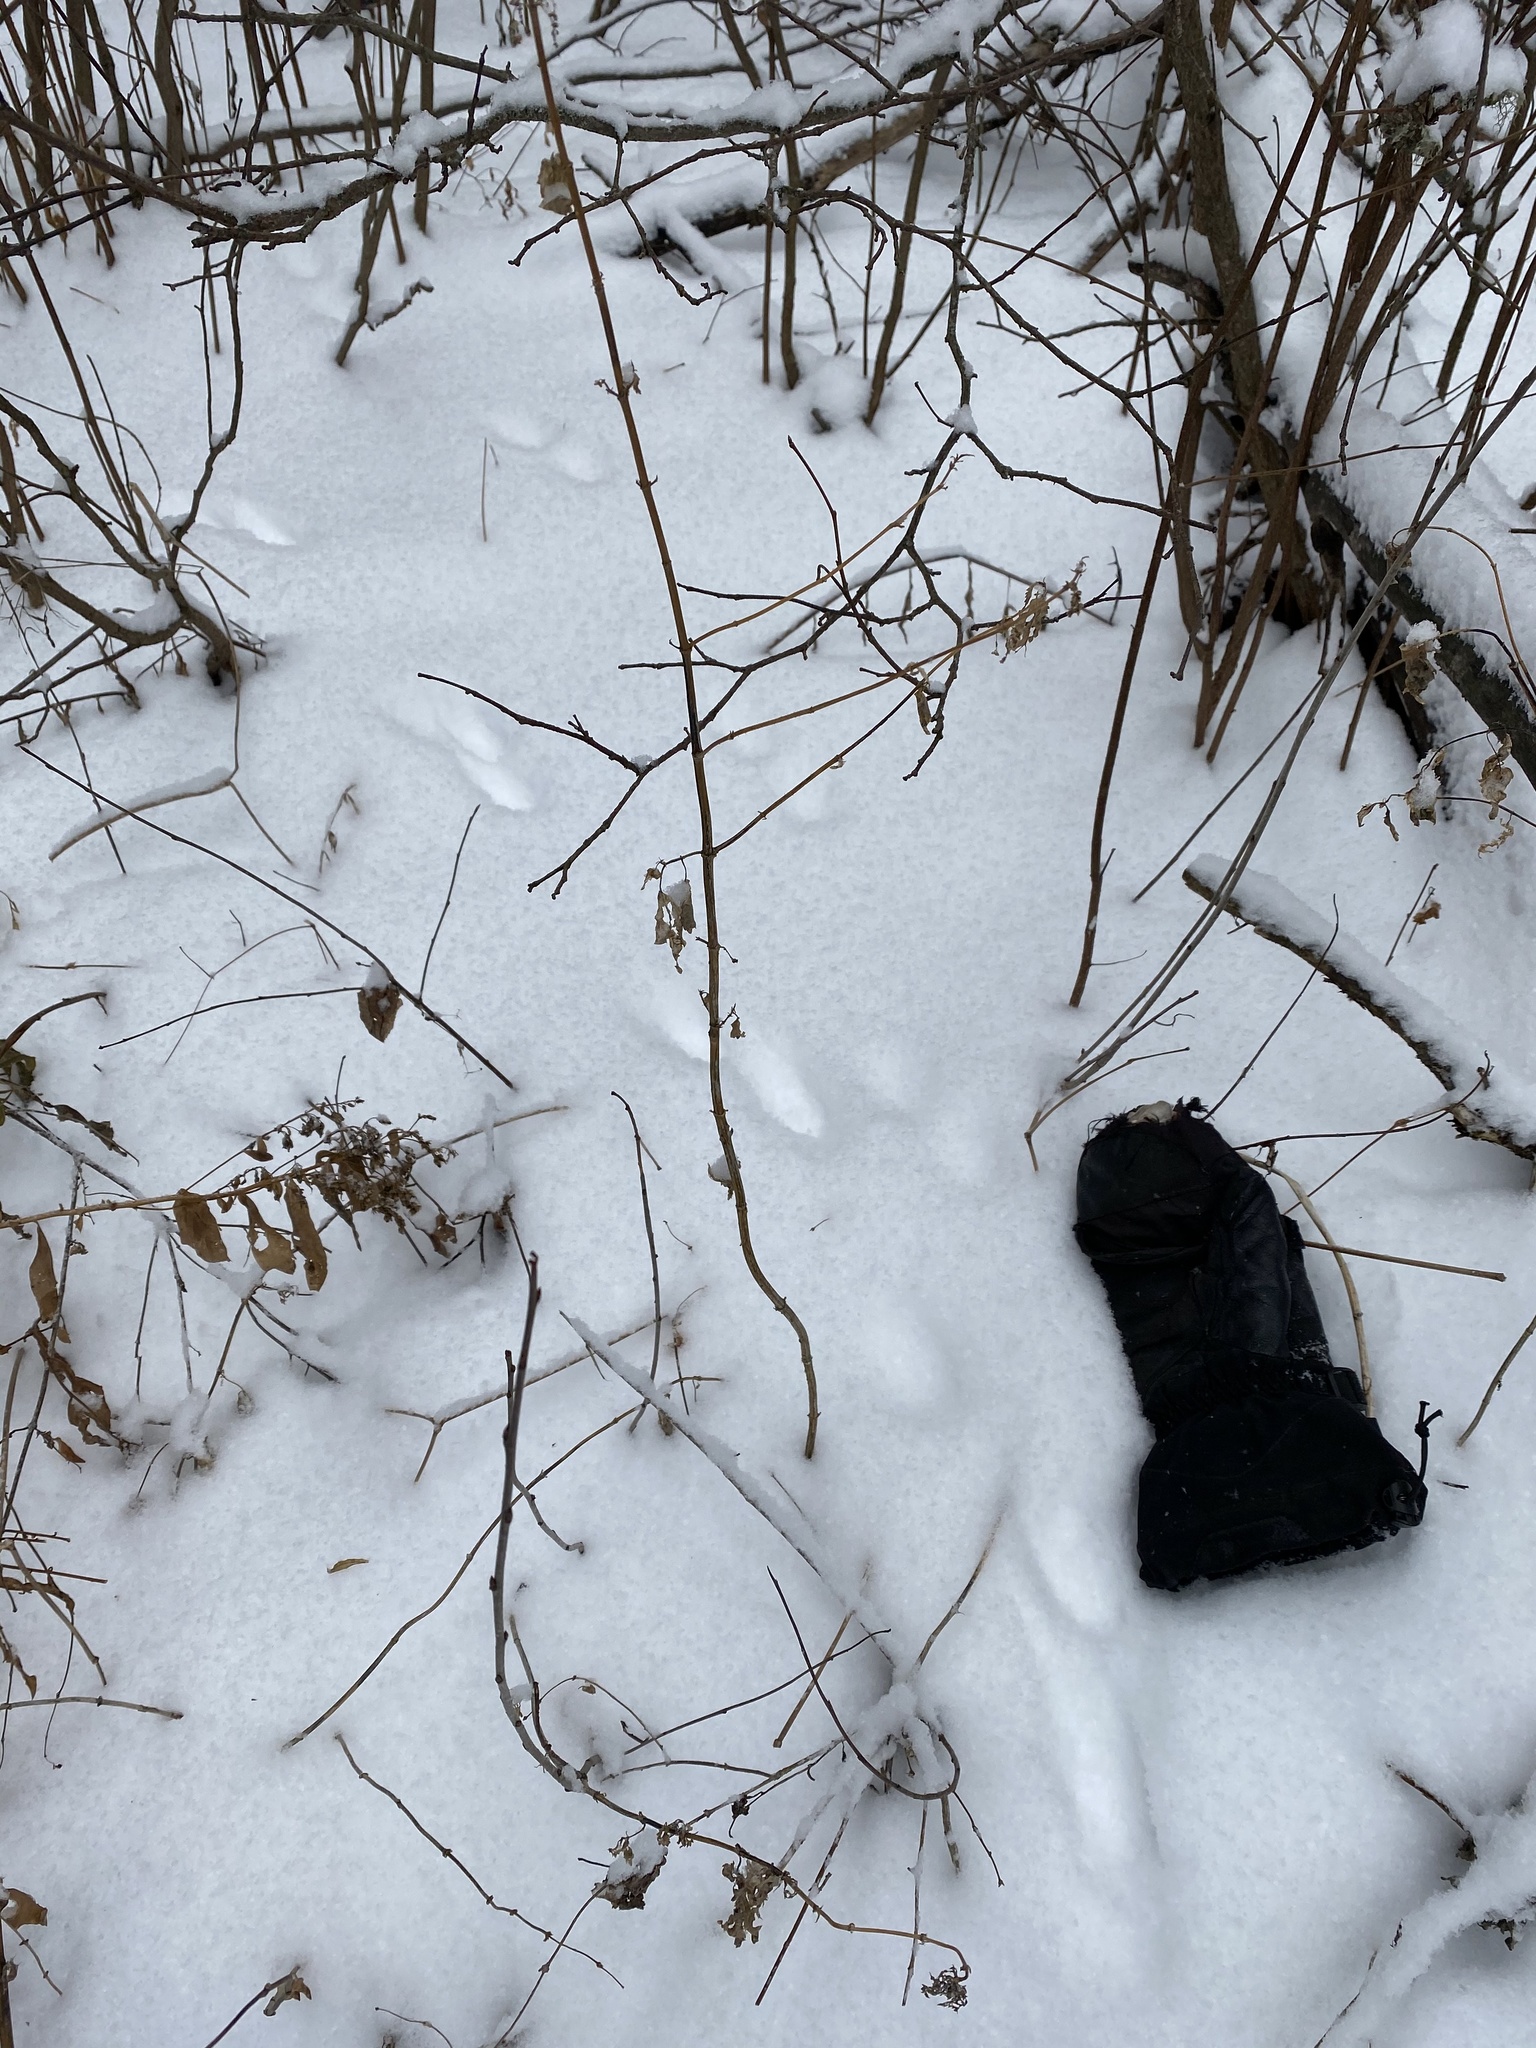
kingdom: Animalia
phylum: Chordata
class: Mammalia
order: Carnivora
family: Mustelidae
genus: Martes
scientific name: Martes americana
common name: American marten
